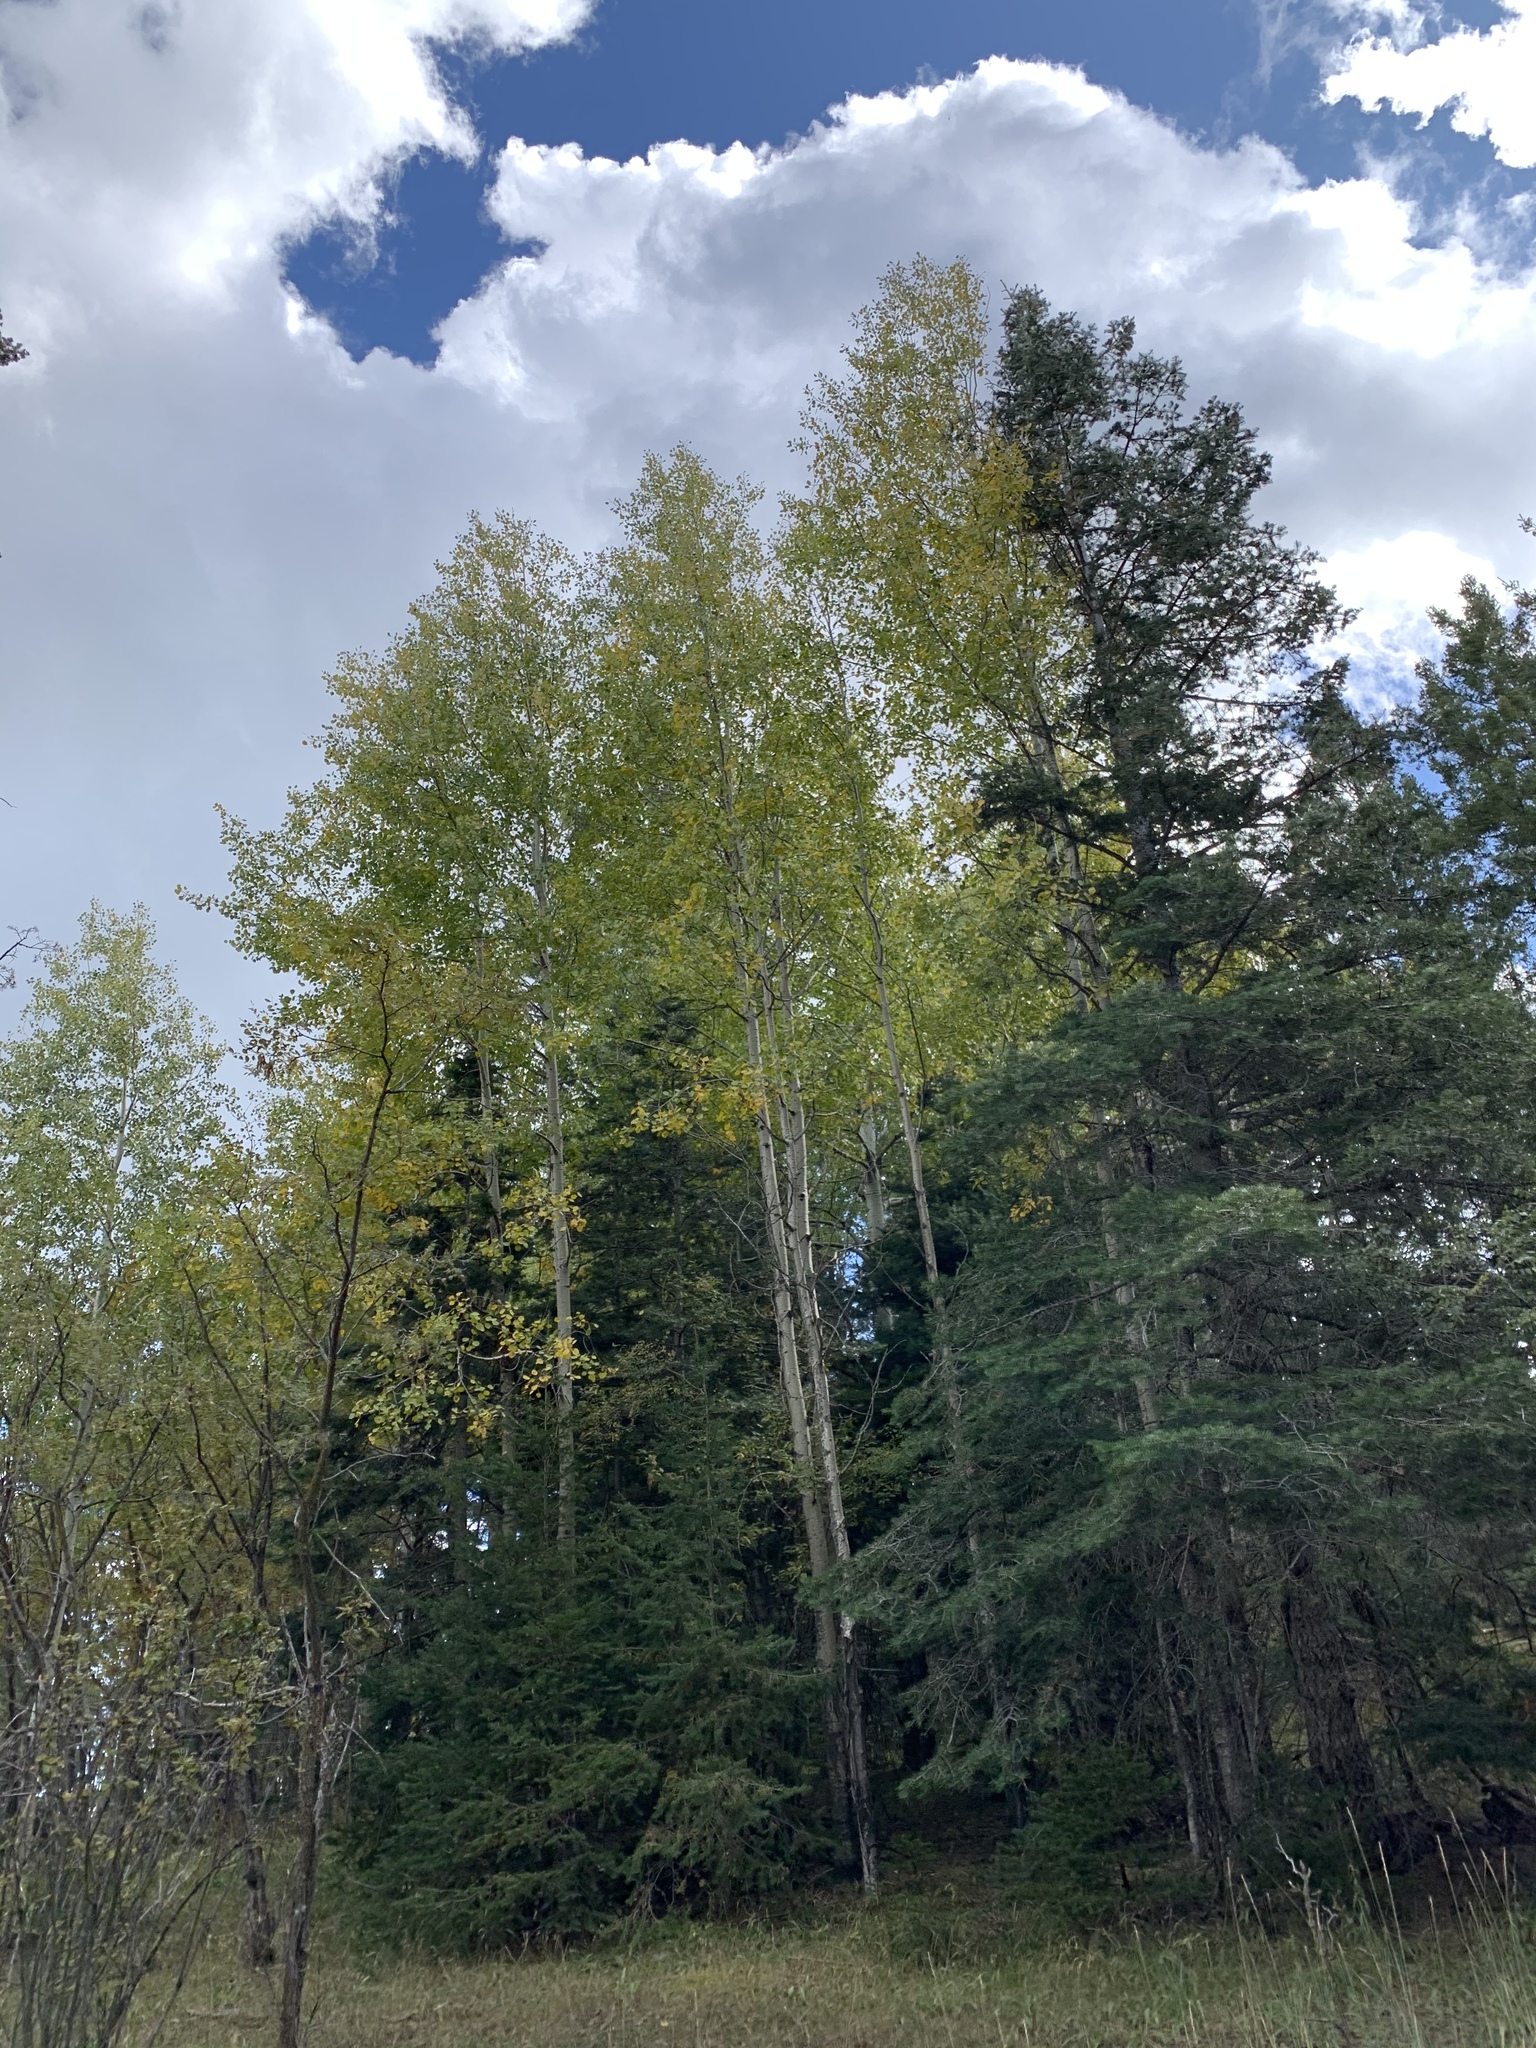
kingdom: Plantae
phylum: Tracheophyta
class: Magnoliopsida
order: Malpighiales
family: Salicaceae
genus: Populus
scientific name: Populus tremuloides
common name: Quaking aspen
